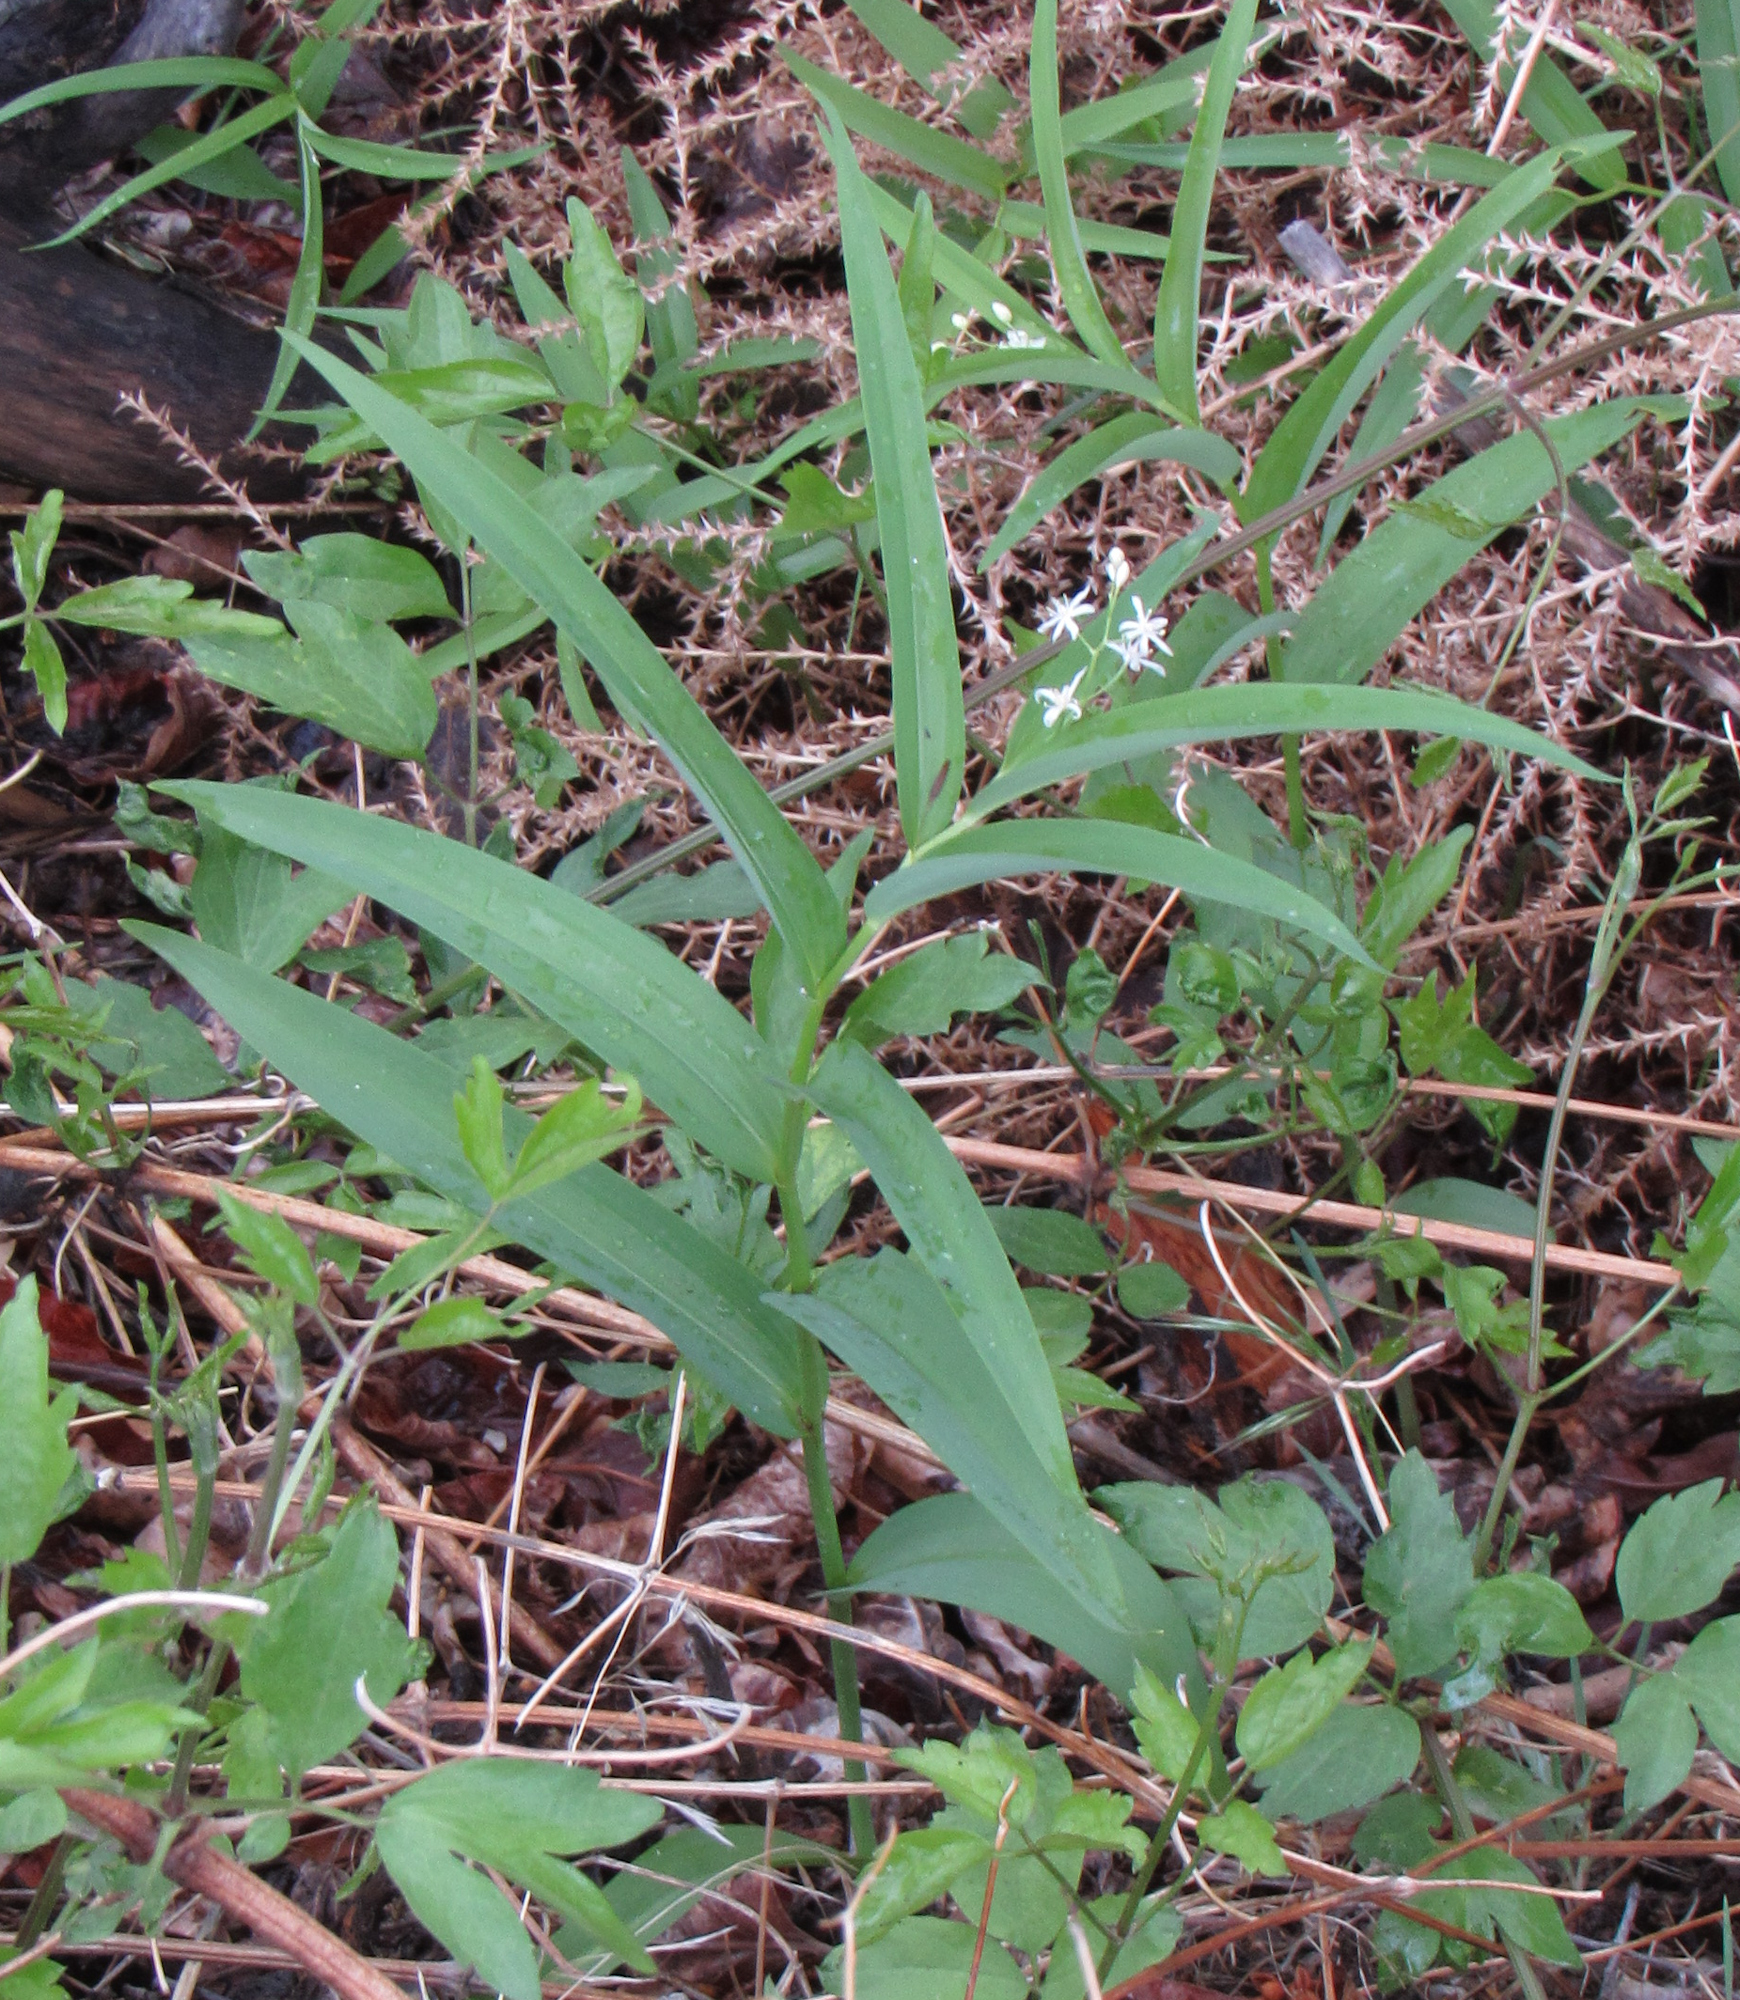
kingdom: Plantae
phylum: Tracheophyta
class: Liliopsida
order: Asparagales
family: Asparagaceae
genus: Maianthemum
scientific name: Maianthemum stellatum
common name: Little false solomon's seal
